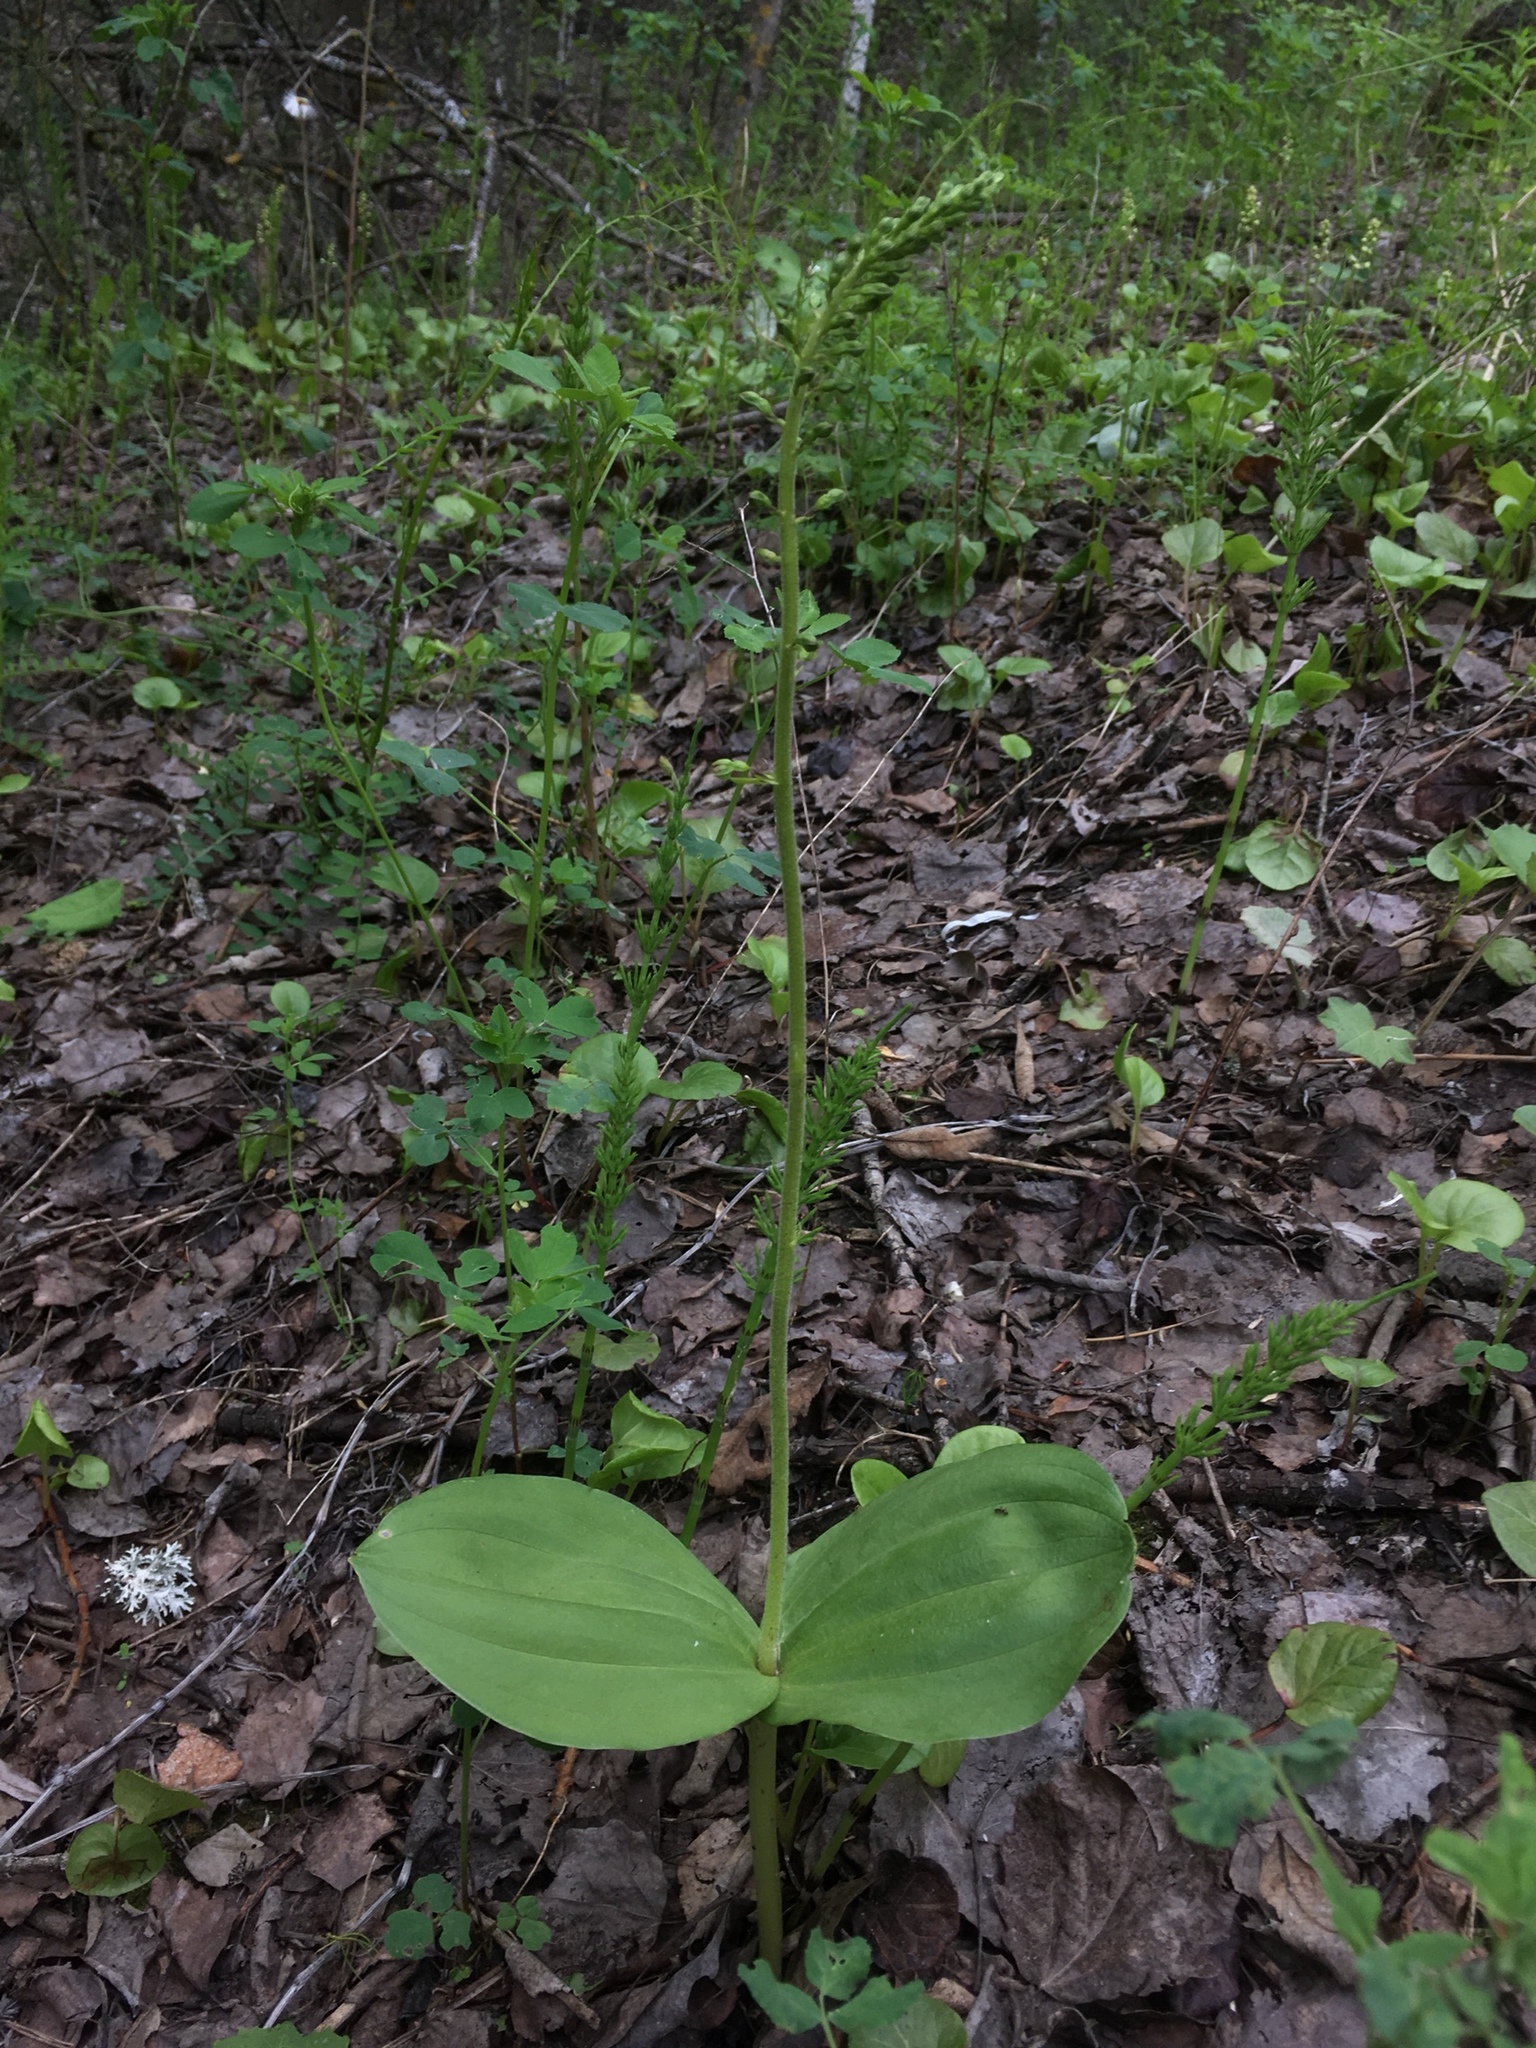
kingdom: Plantae
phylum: Tracheophyta
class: Liliopsida
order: Asparagales
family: Orchidaceae
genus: Neottia
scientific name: Neottia ovata
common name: Common twayblade
